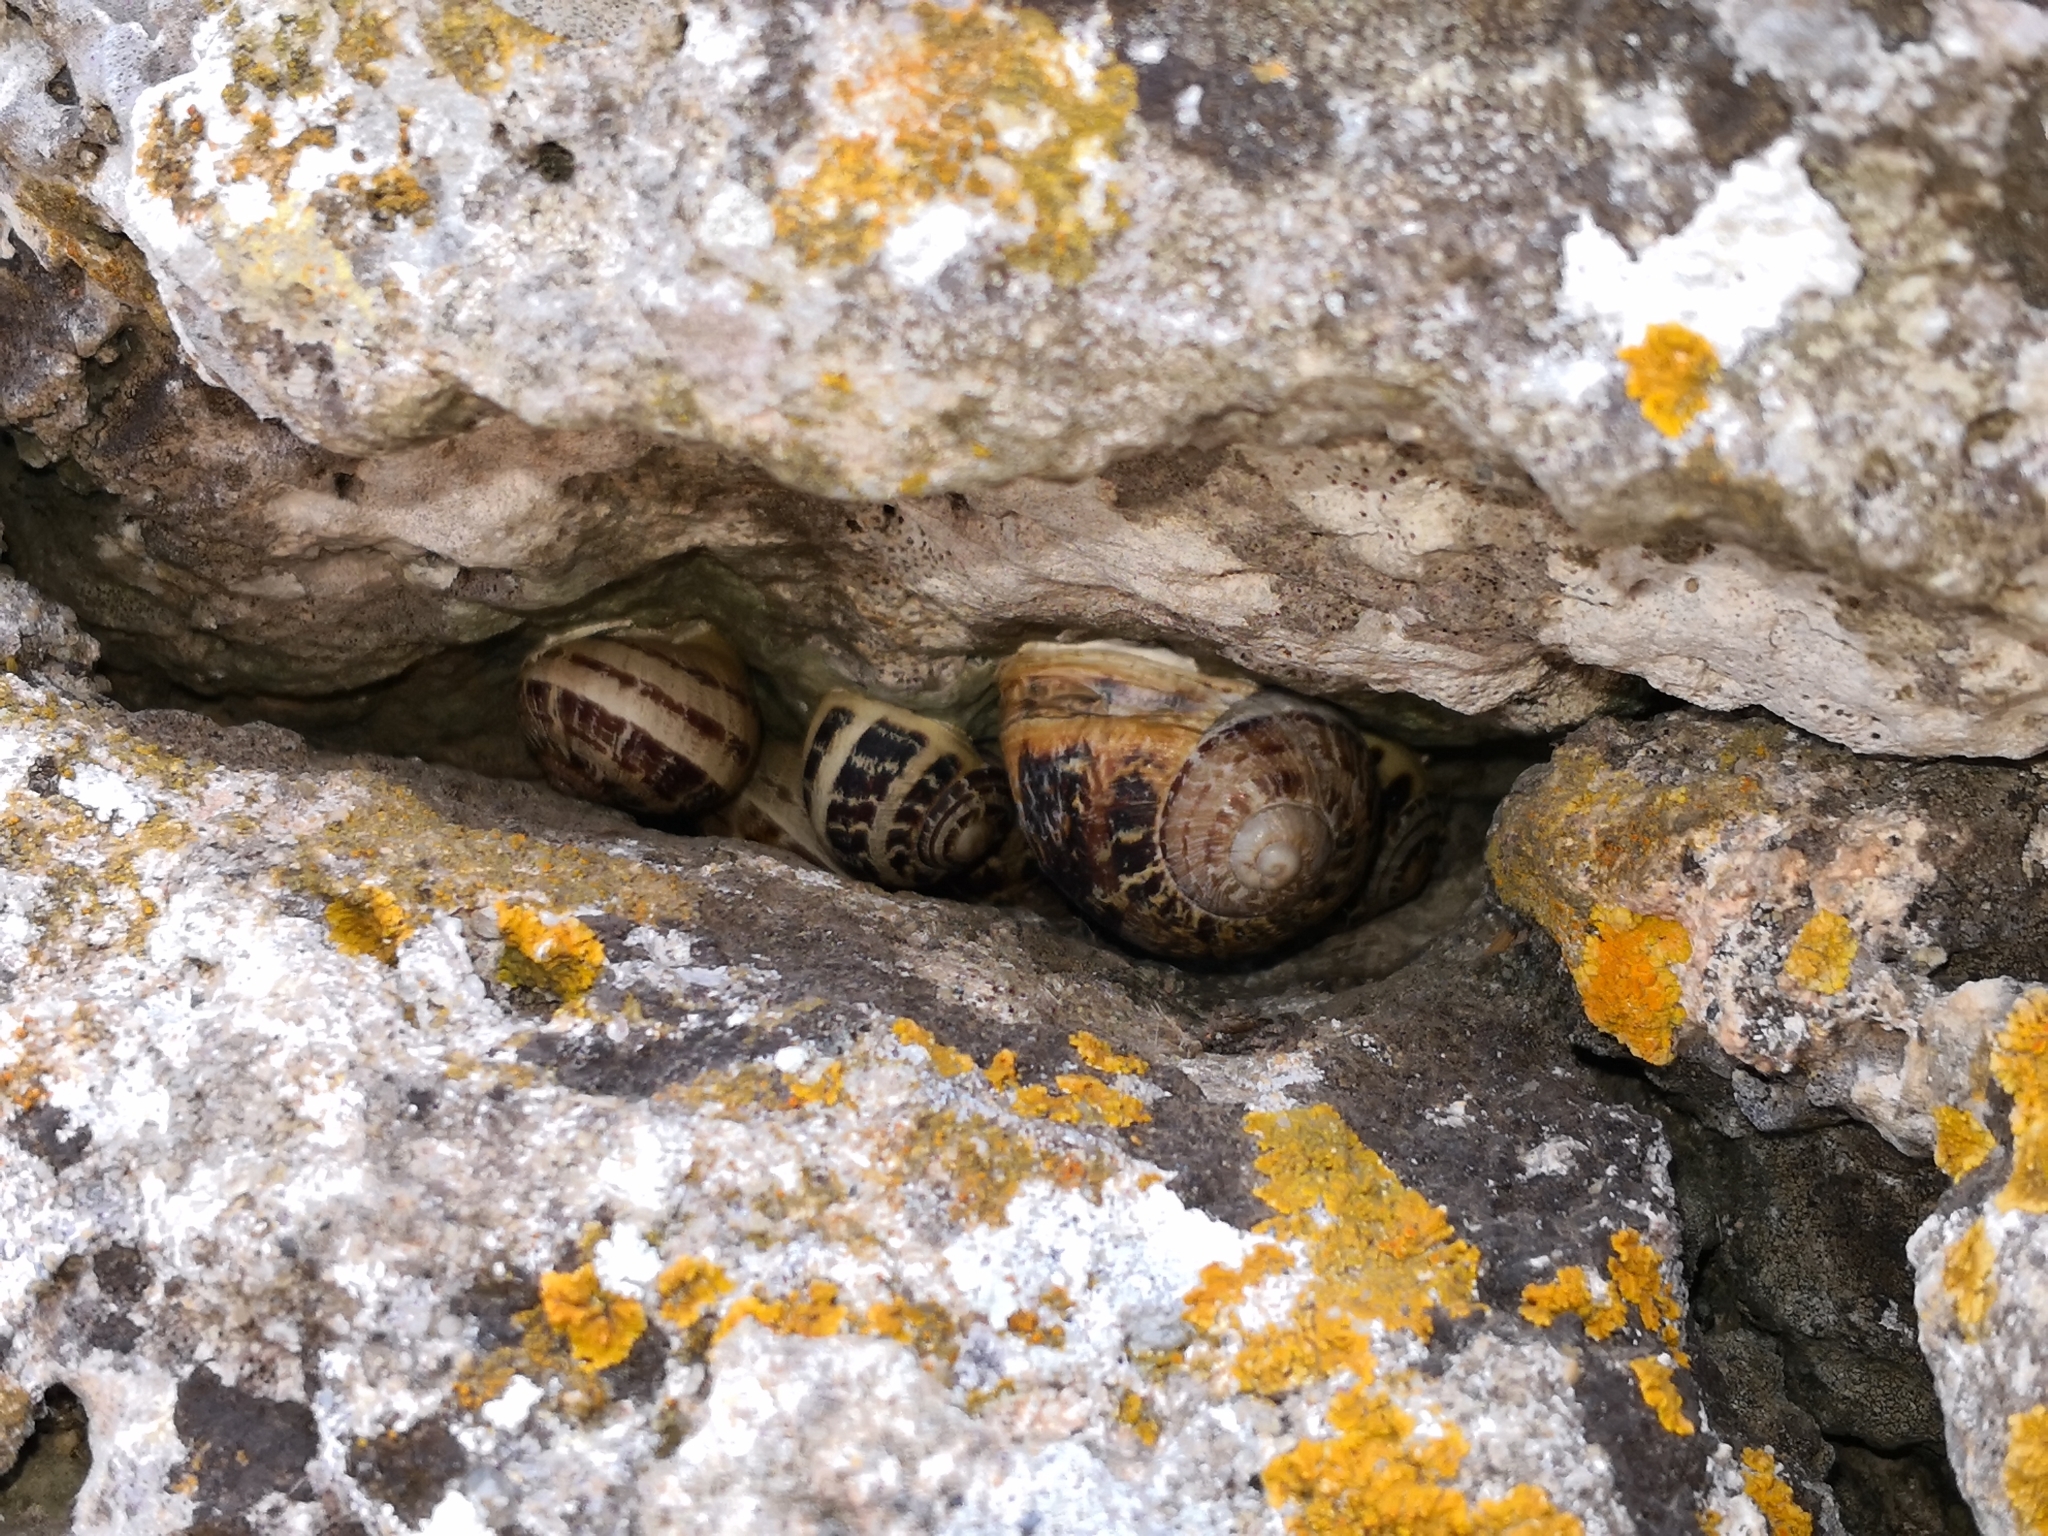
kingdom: Animalia
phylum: Mollusca
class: Gastropoda
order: Stylommatophora
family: Helicidae
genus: Cornu
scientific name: Cornu aspersum
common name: Brown garden snail
